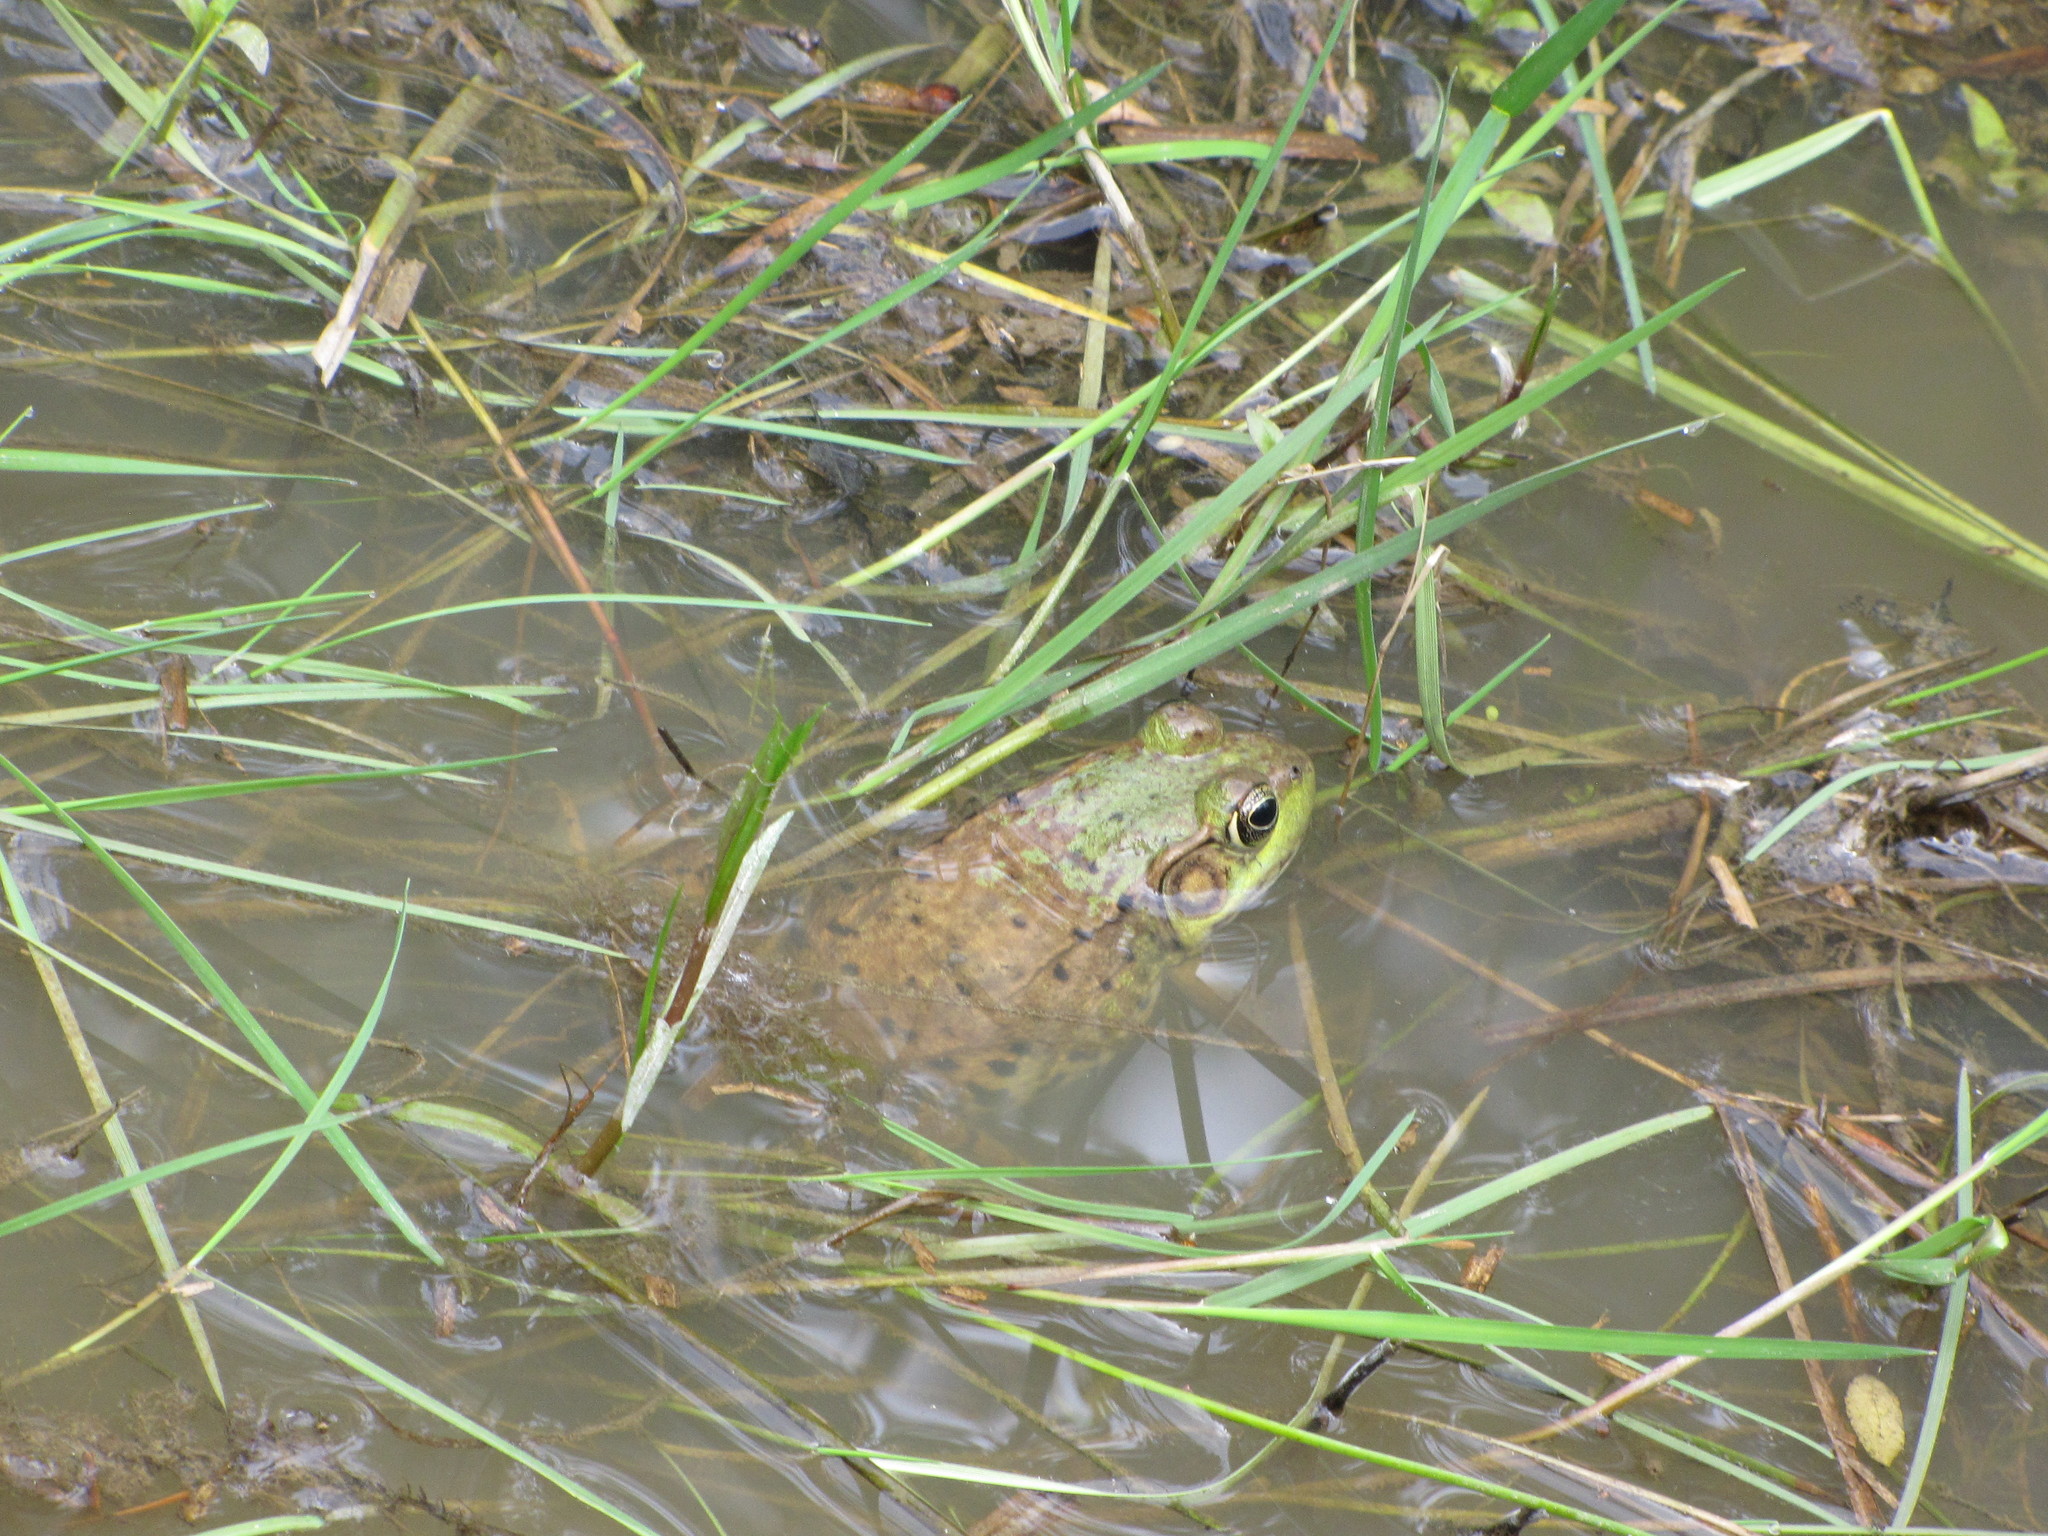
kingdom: Animalia
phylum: Chordata
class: Amphibia
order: Anura
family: Ranidae
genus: Lithobates
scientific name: Lithobates clamitans
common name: Green frog
